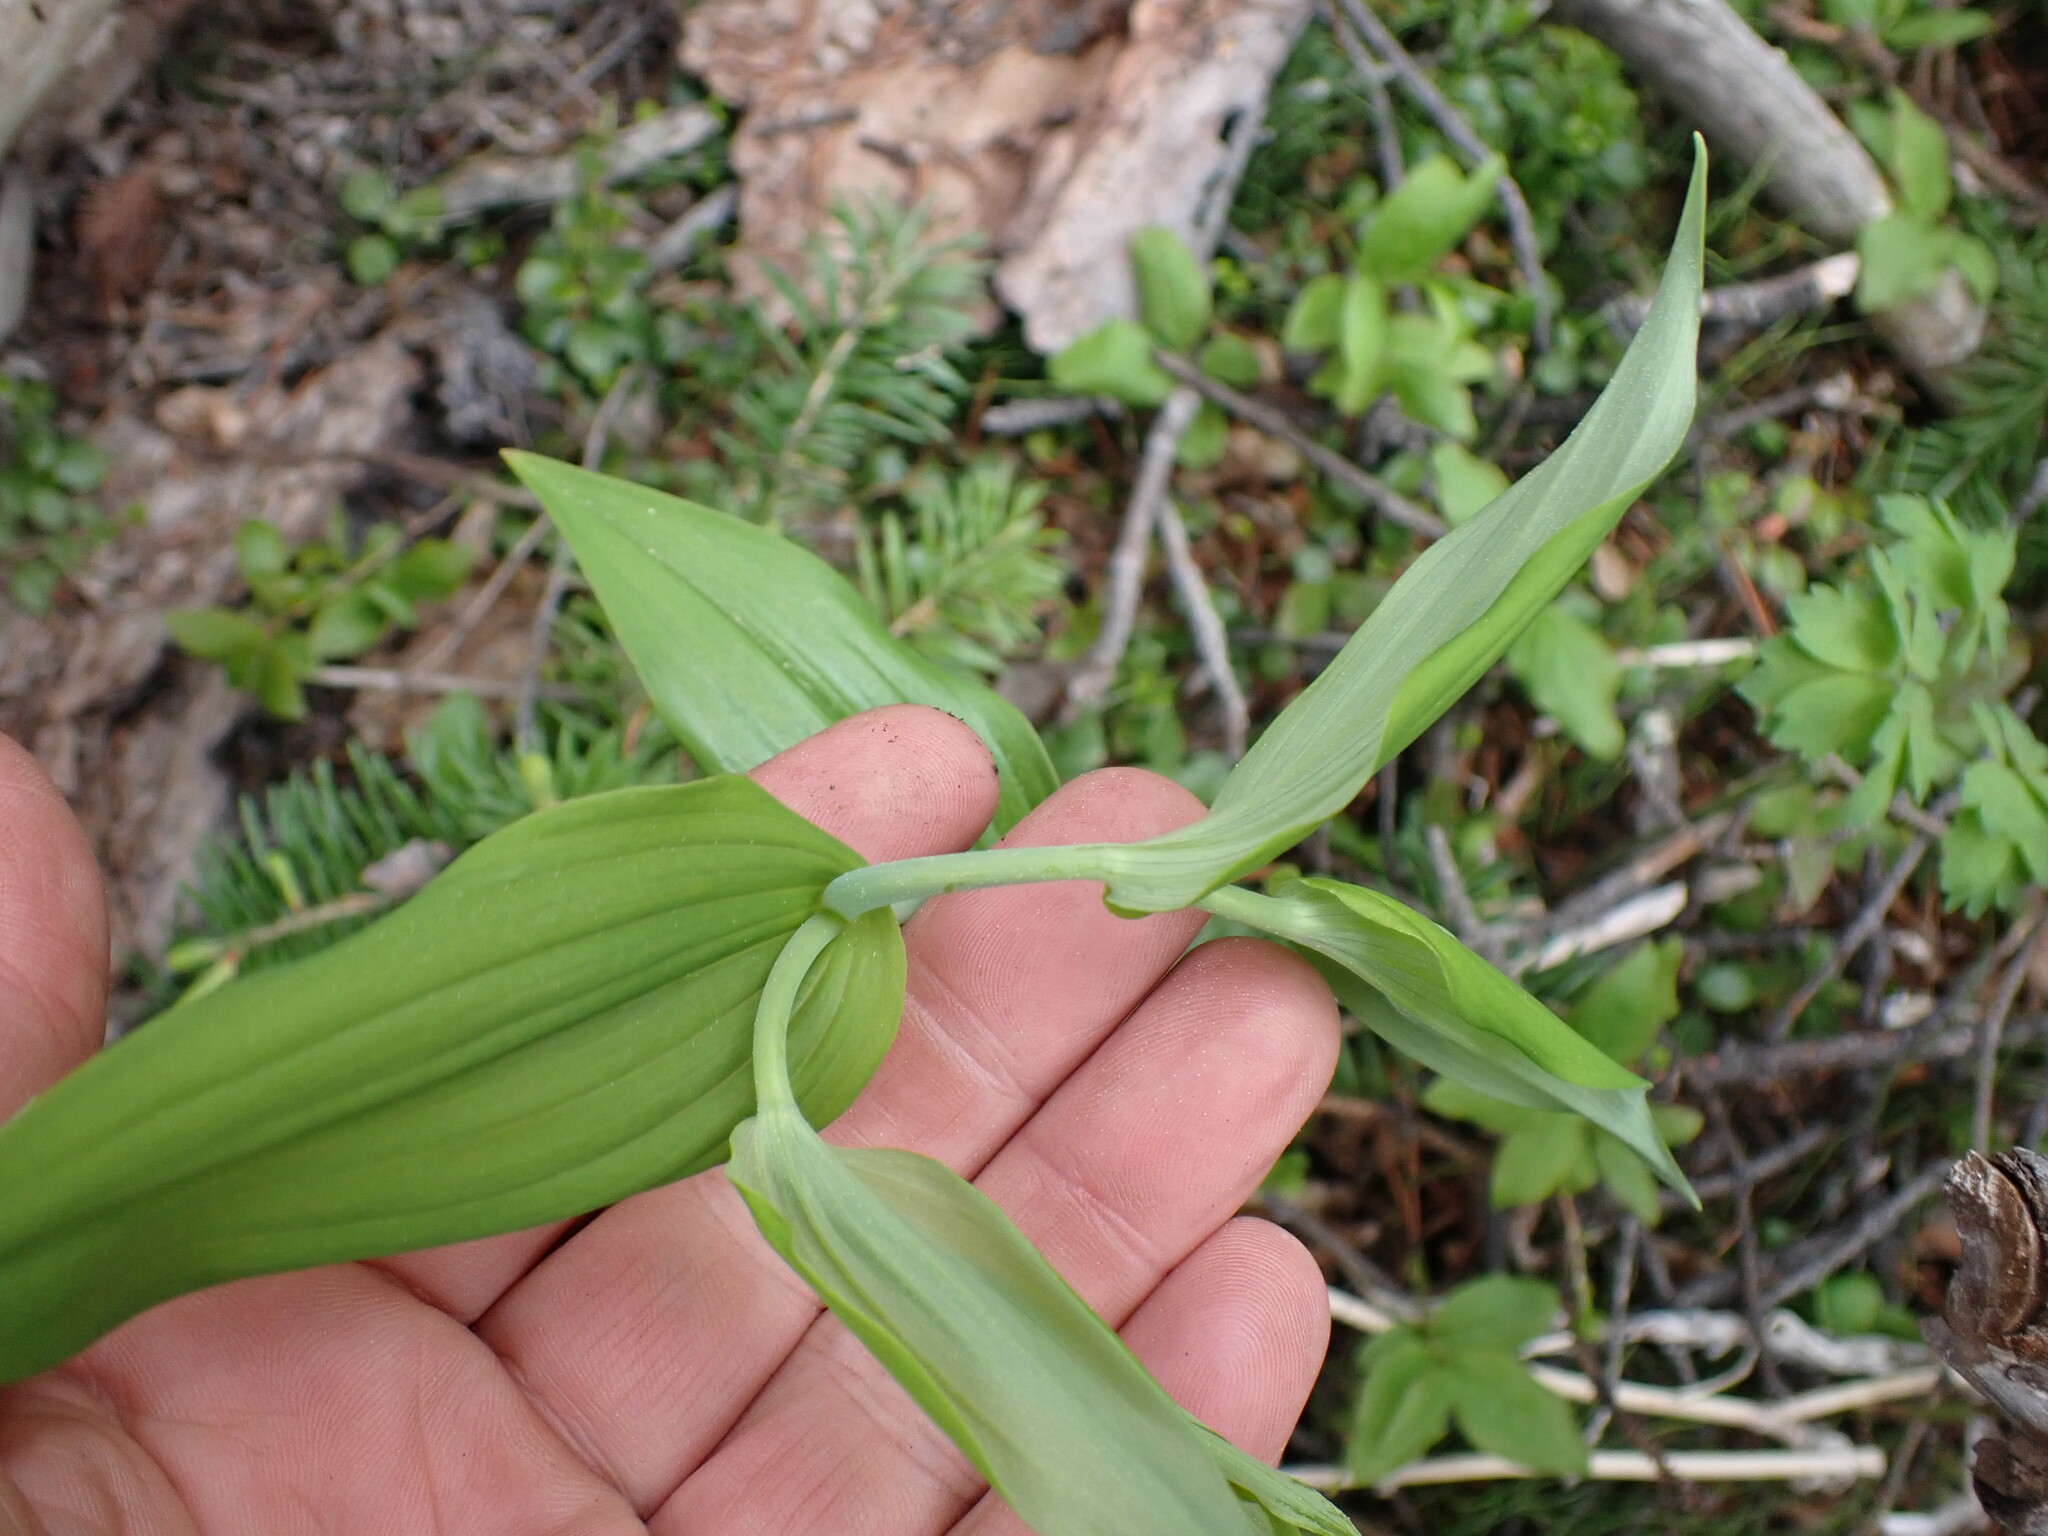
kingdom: Plantae
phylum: Tracheophyta
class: Liliopsida
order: Liliales
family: Liliaceae
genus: Streptopus
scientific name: Streptopus amplexifolius
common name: Clasp twisted stalk
